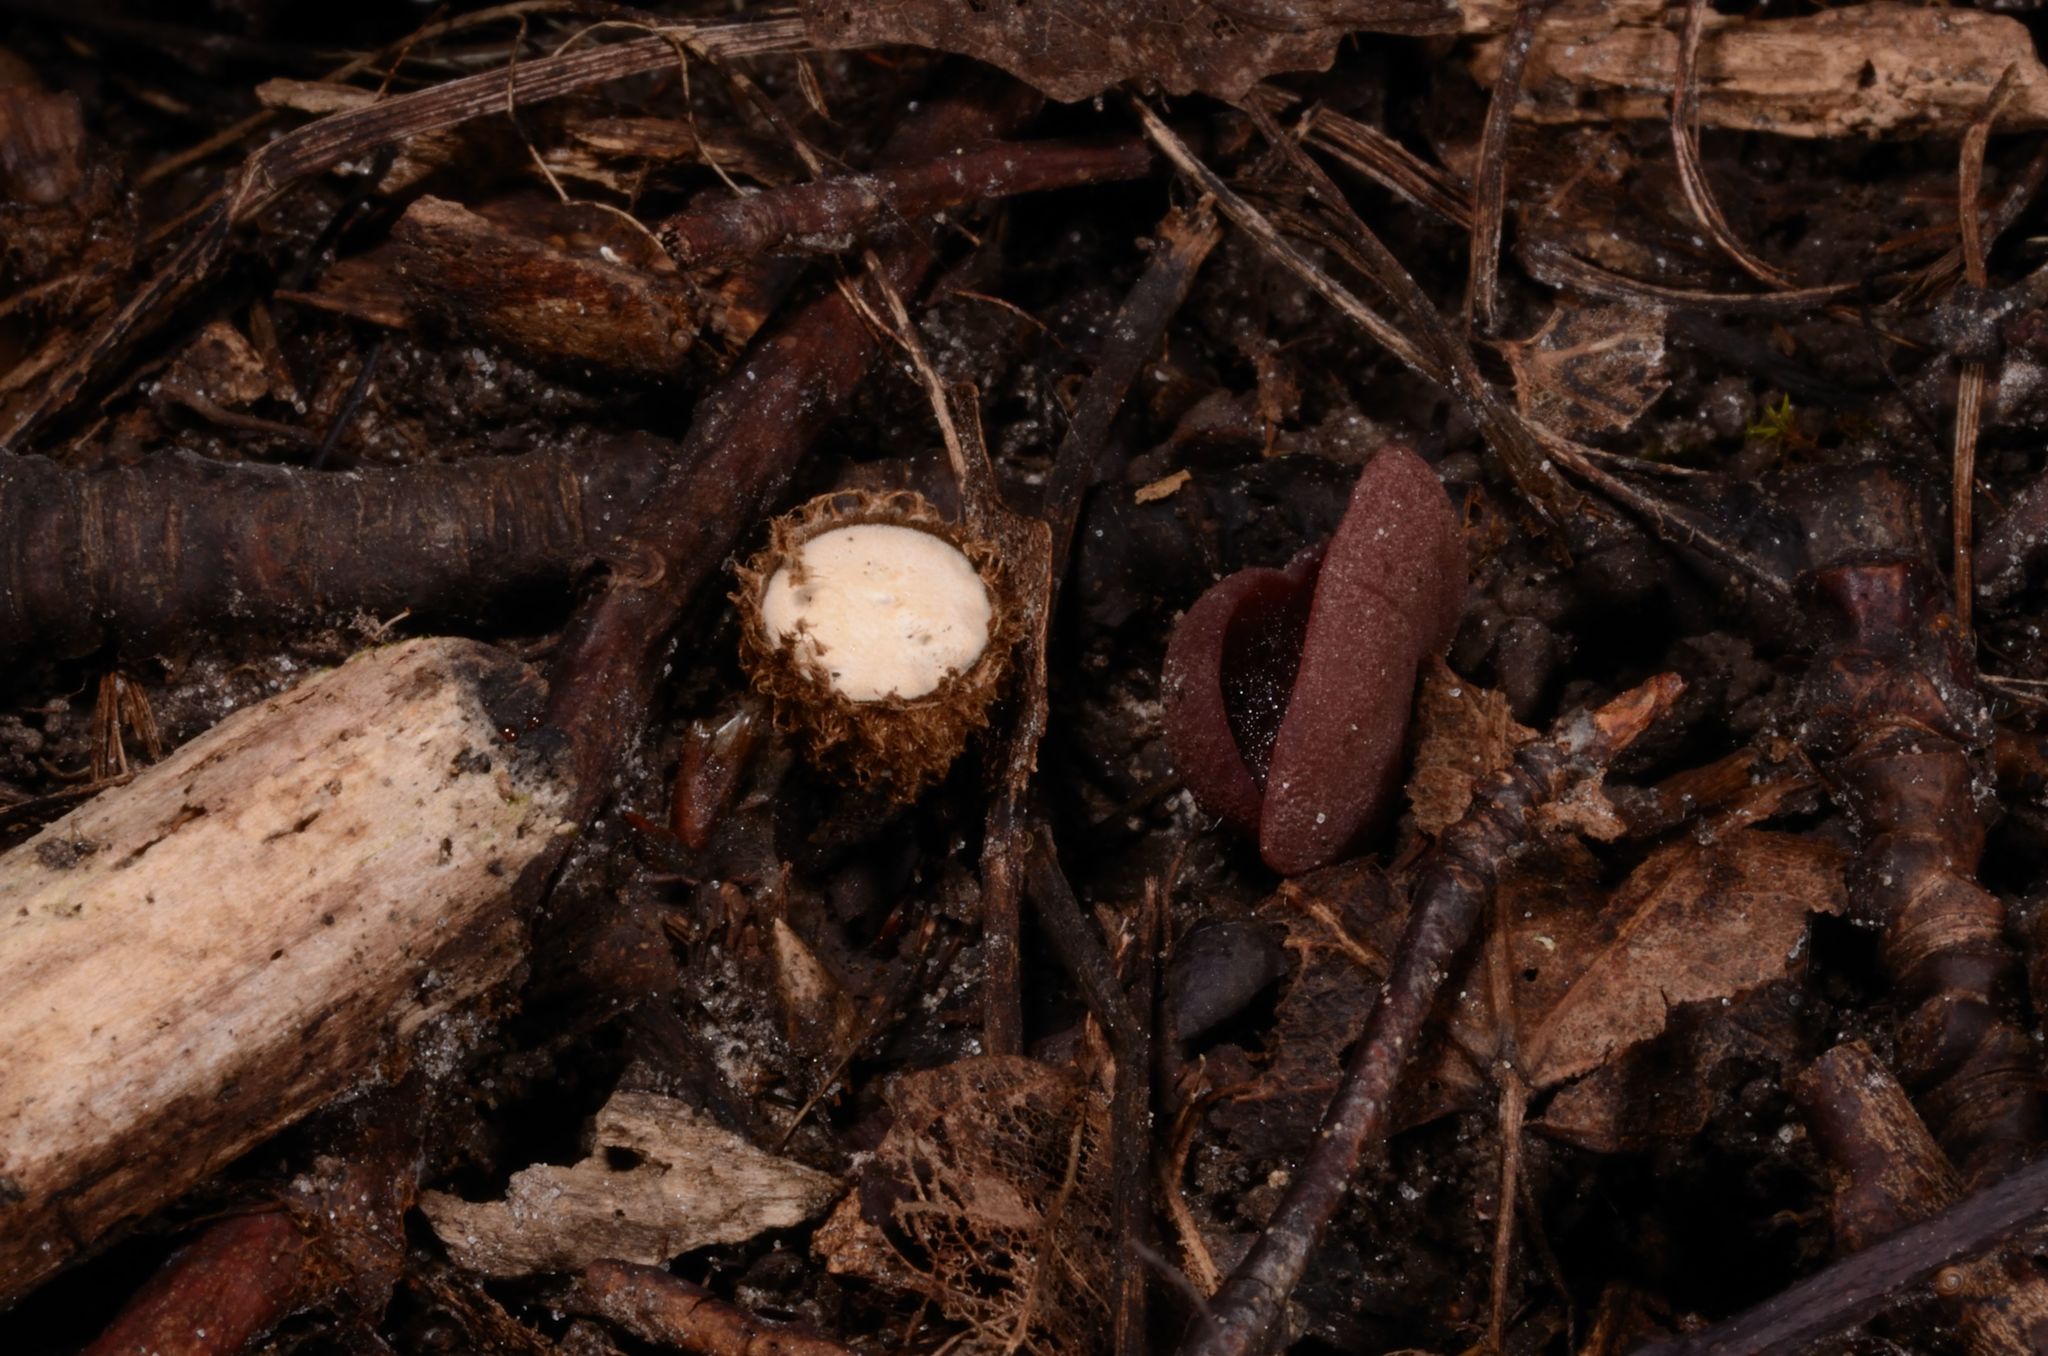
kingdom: Fungi
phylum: Basidiomycota
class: Agaricomycetes
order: Agaricales
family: Agaricaceae
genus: Cyathus
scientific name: Cyathus striatus
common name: Fluted bird's nest
